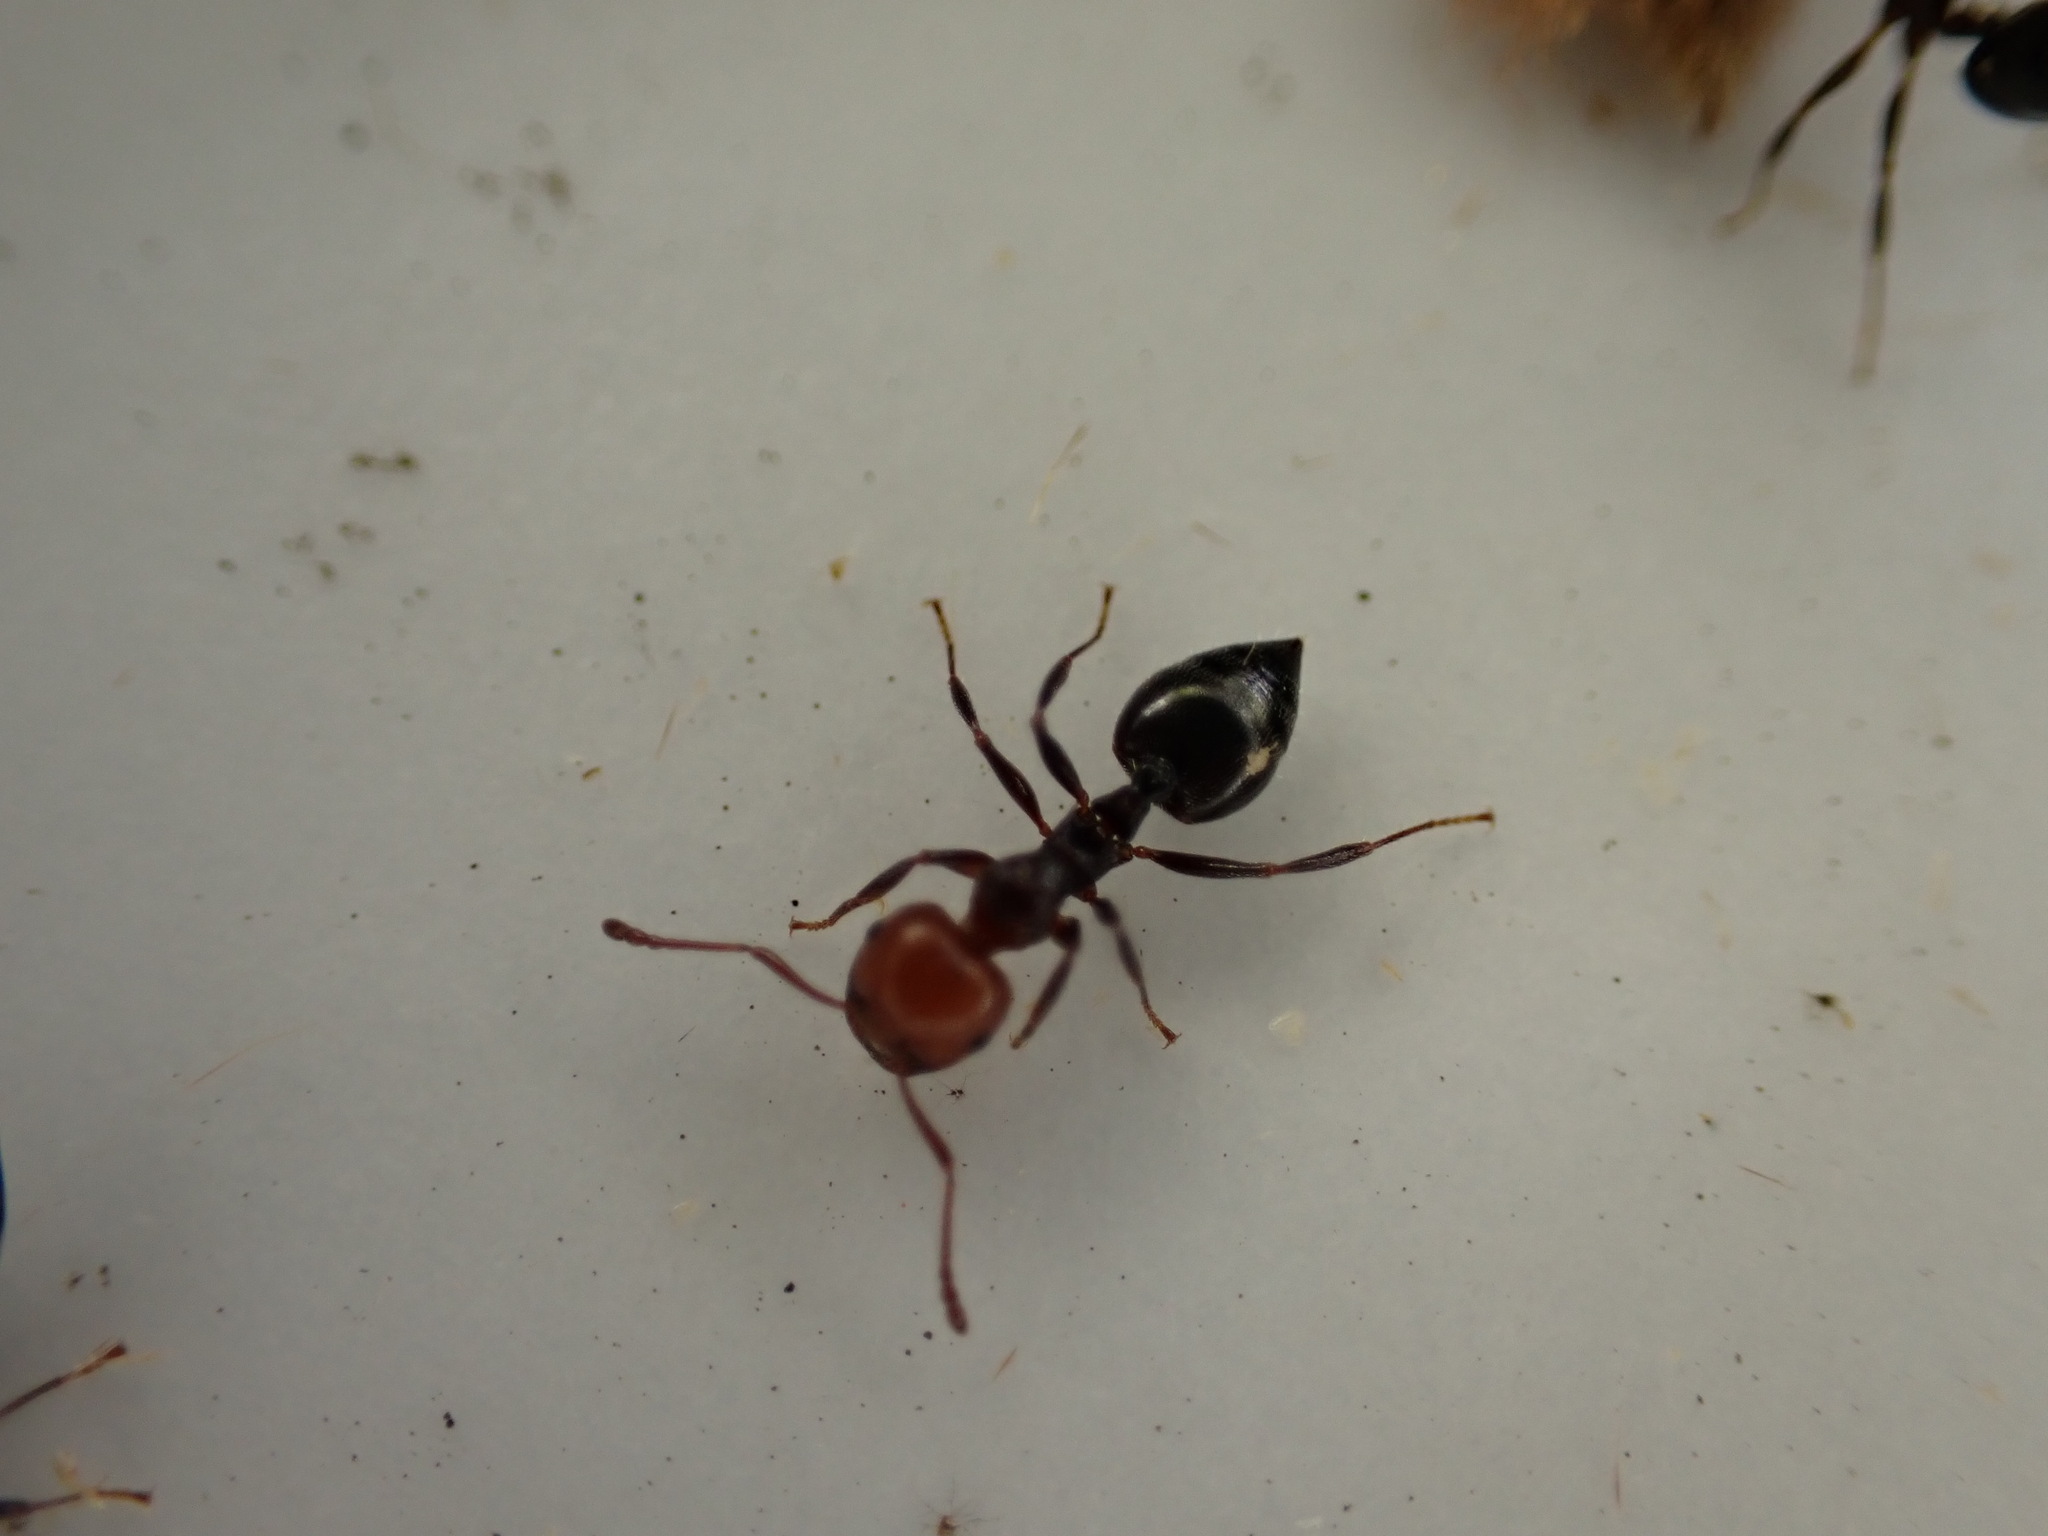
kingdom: Animalia
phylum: Arthropoda
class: Insecta
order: Hymenoptera
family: Formicidae
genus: Crematogaster
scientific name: Crematogaster scutellaris
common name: Fourmi du liège
